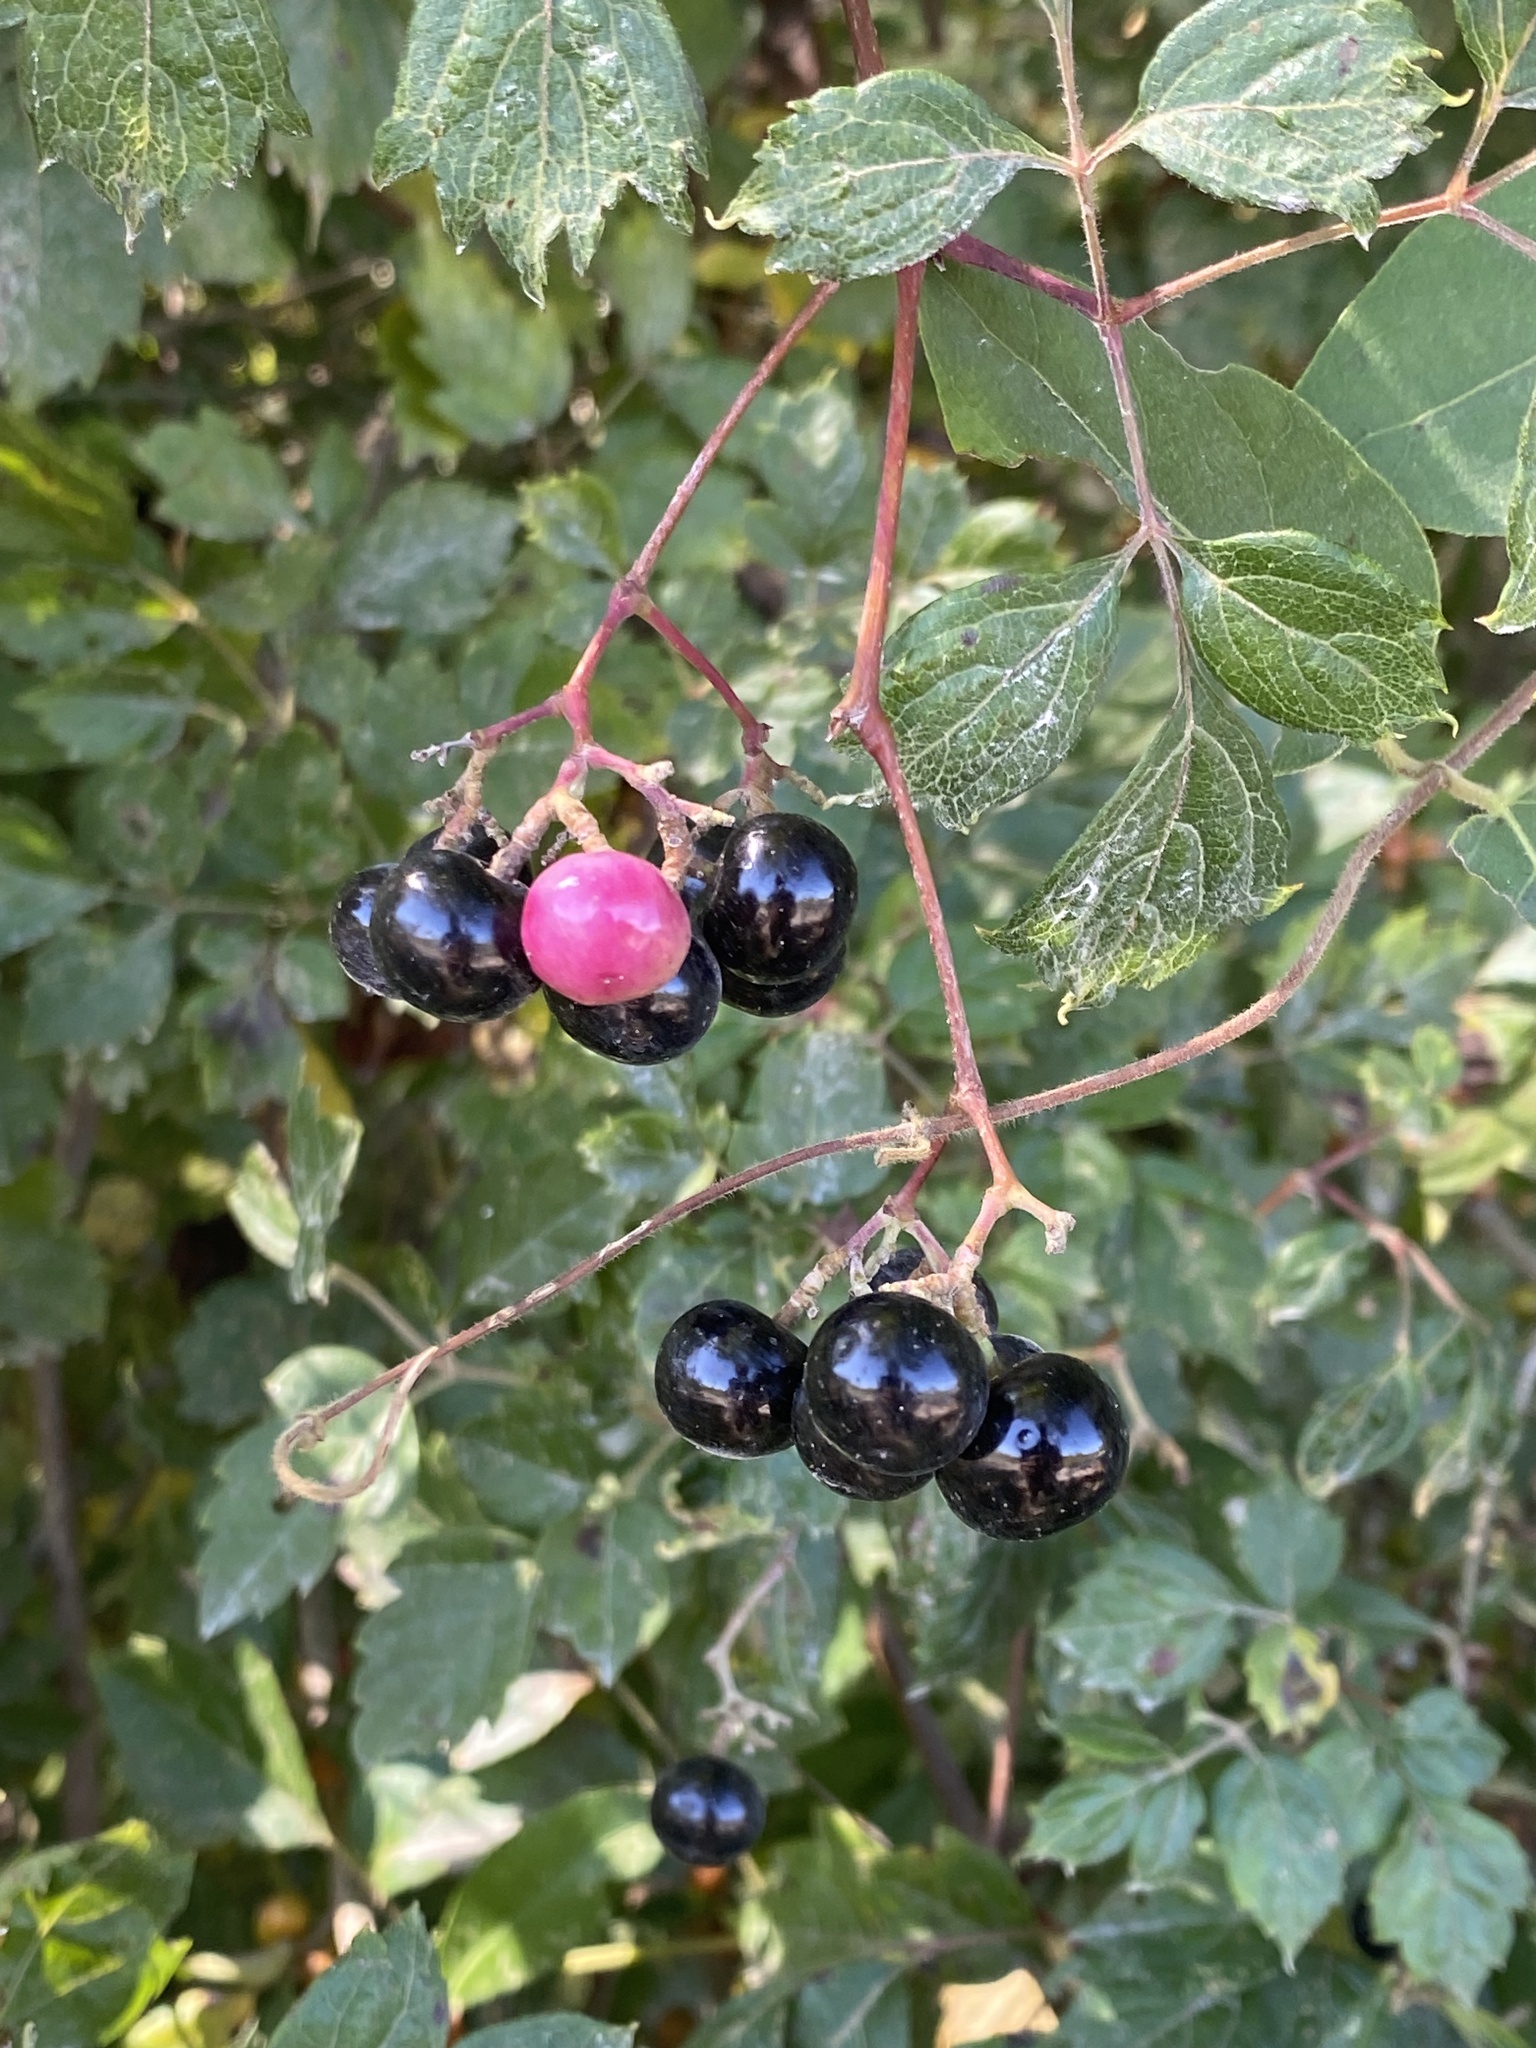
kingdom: Plantae
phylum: Tracheophyta
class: Magnoliopsida
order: Vitales
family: Vitaceae
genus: Nekemias
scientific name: Nekemias arborea
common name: Peppervine
